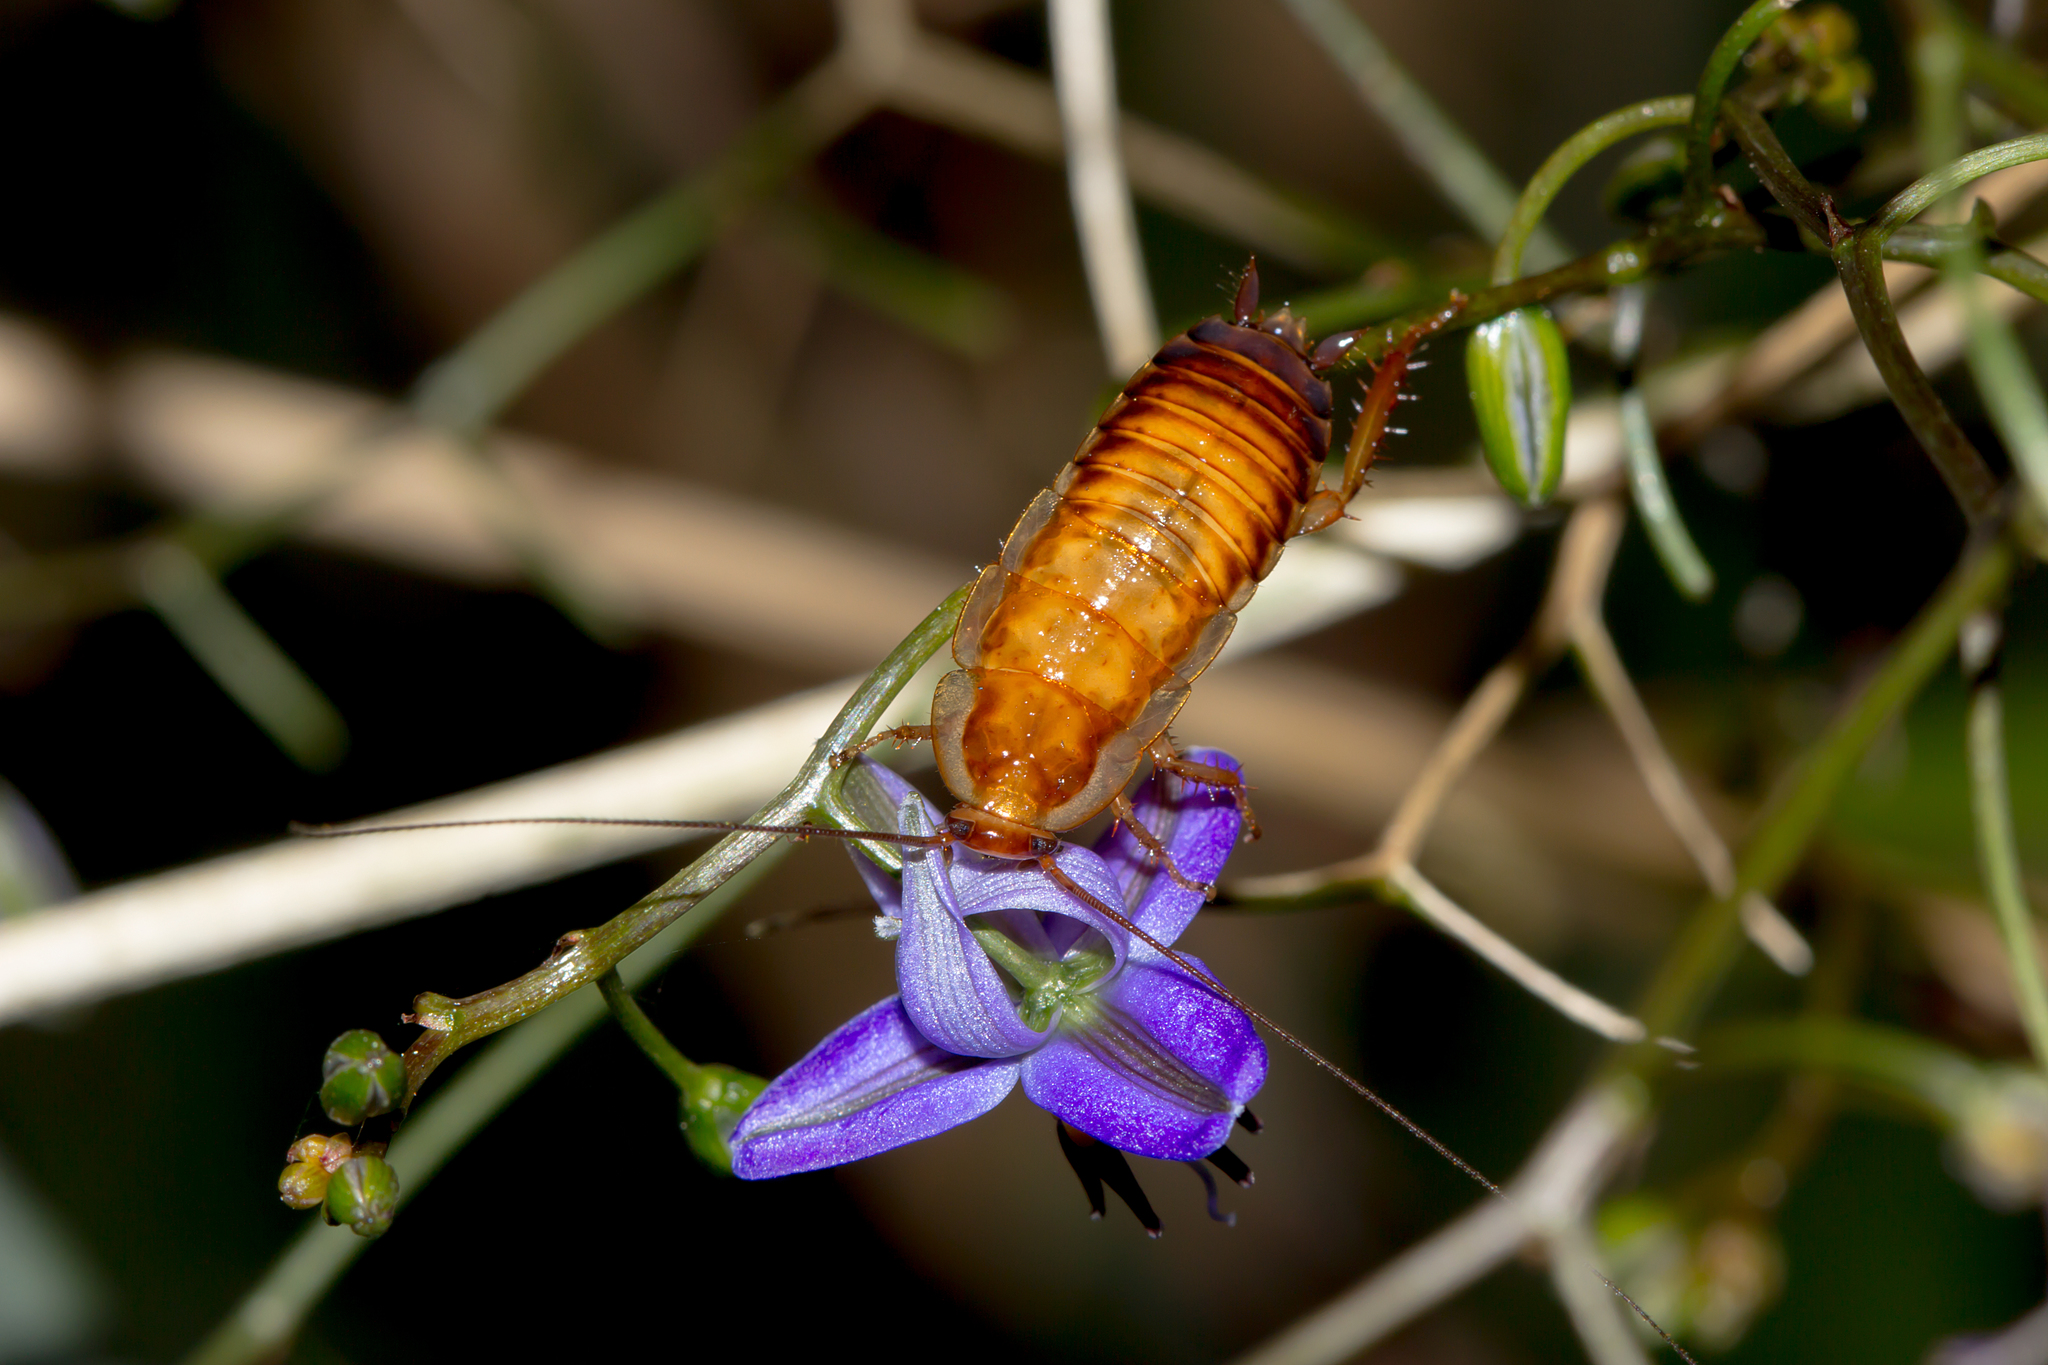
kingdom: Animalia
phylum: Arthropoda
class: Insecta
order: Blattodea
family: Blattidae
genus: Drymaplaneta
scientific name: Drymaplaneta communis
